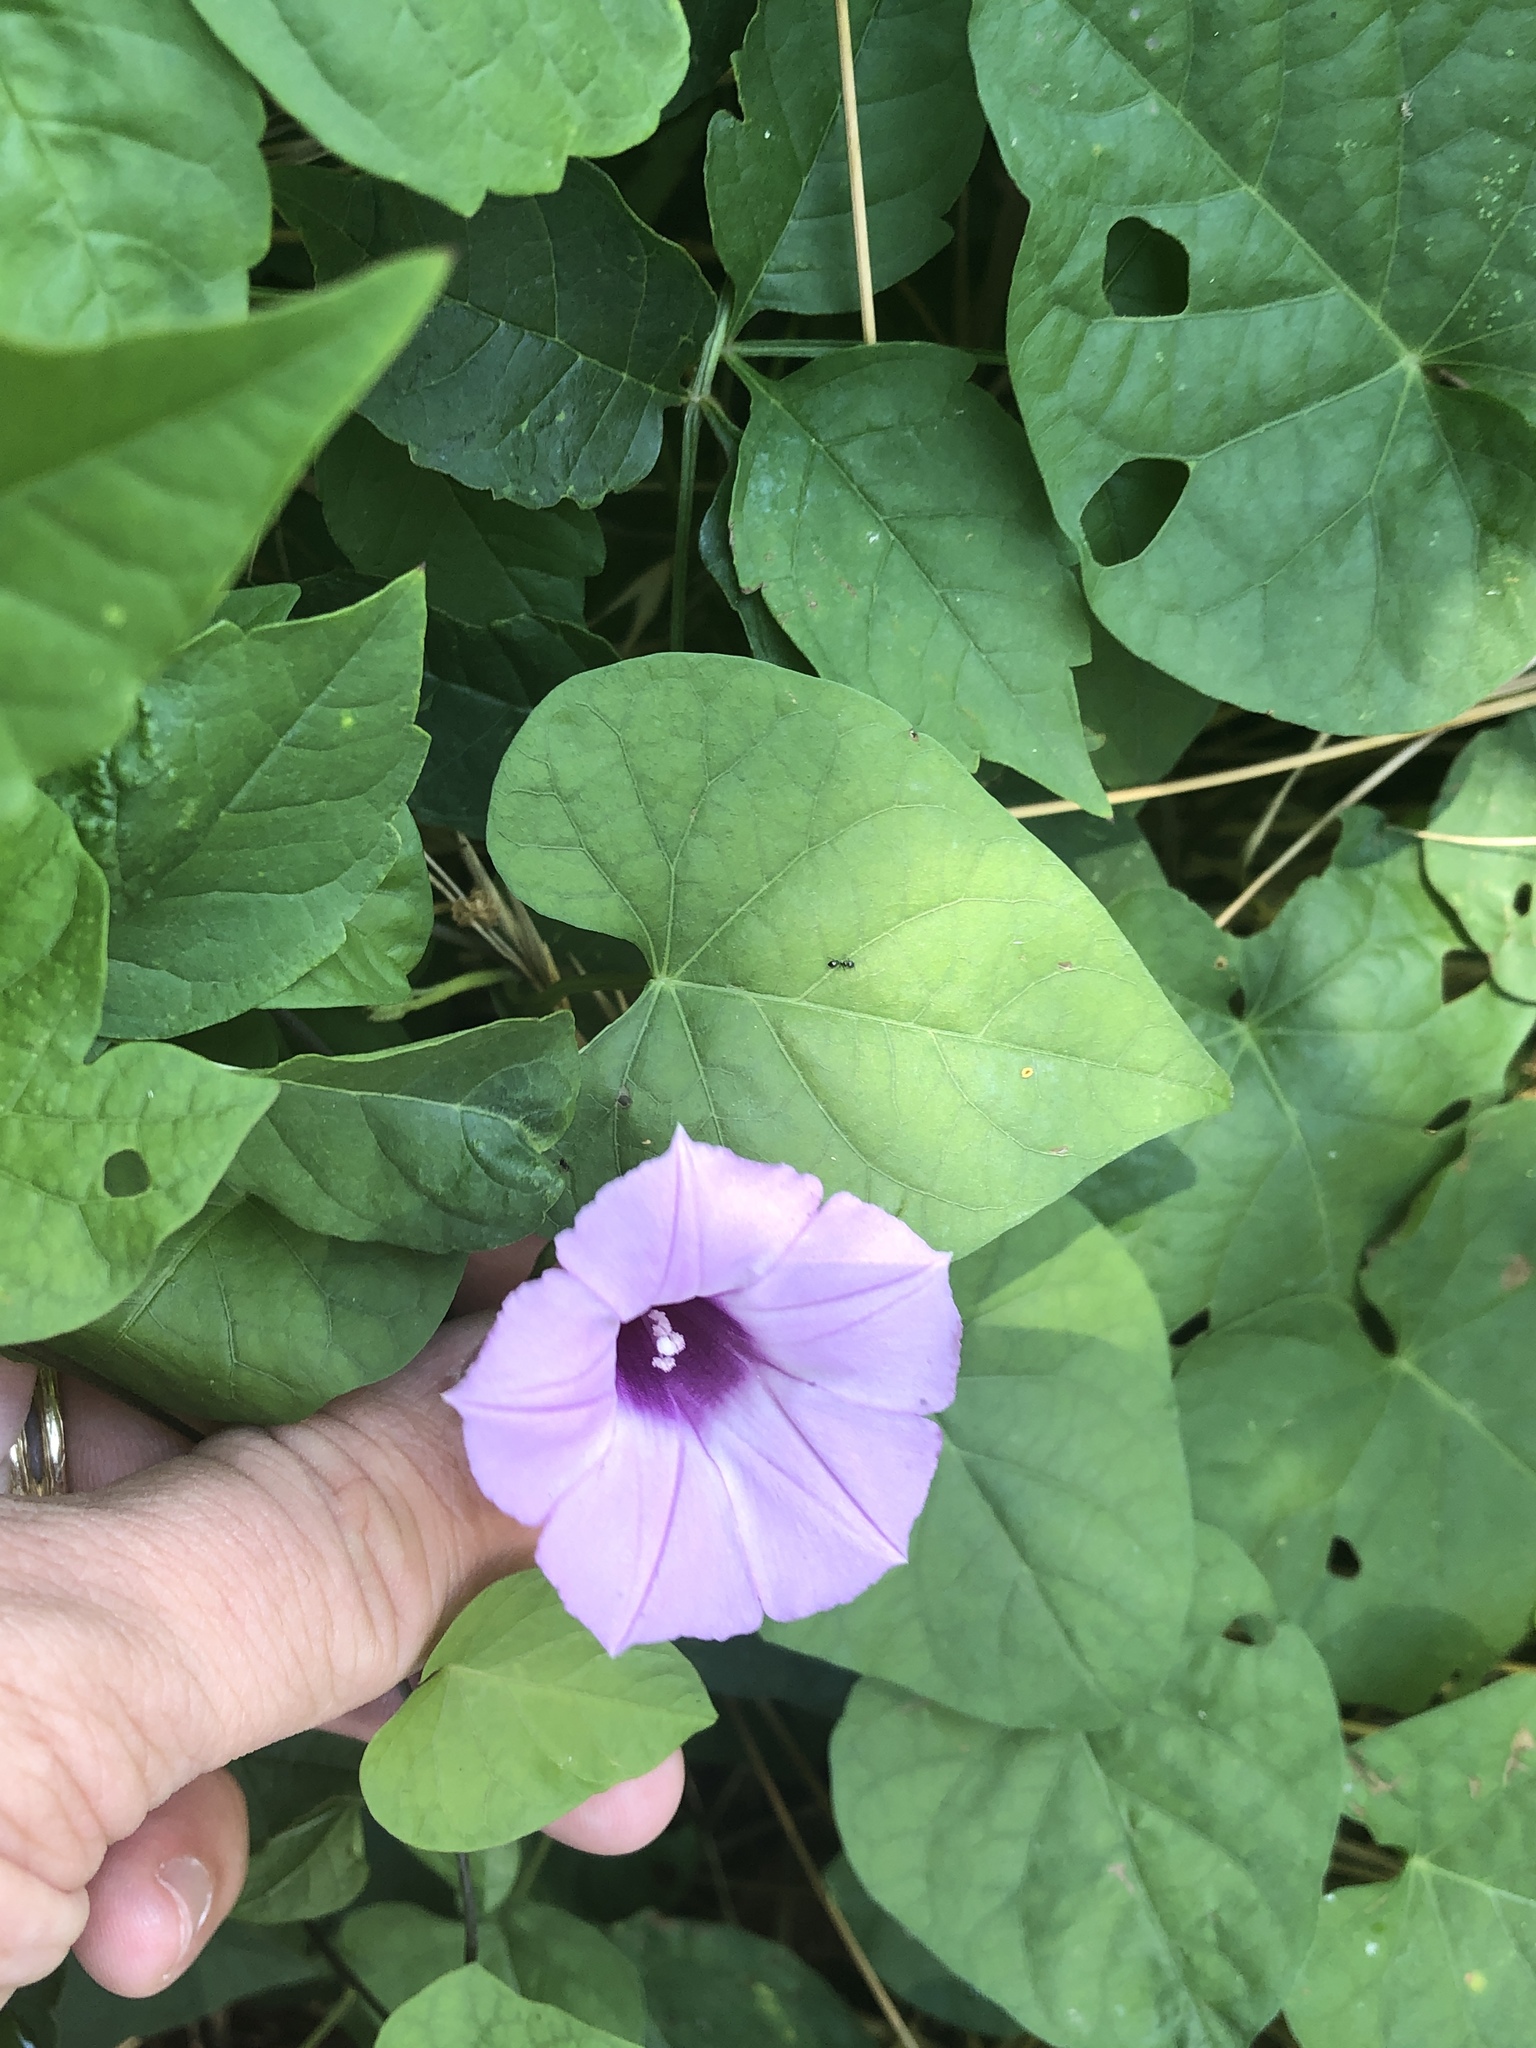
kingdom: Plantae
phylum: Tracheophyta
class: Magnoliopsida
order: Solanales
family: Convolvulaceae
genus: Ipomoea
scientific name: Ipomoea cordatotriloba
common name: Cotton morning glory
